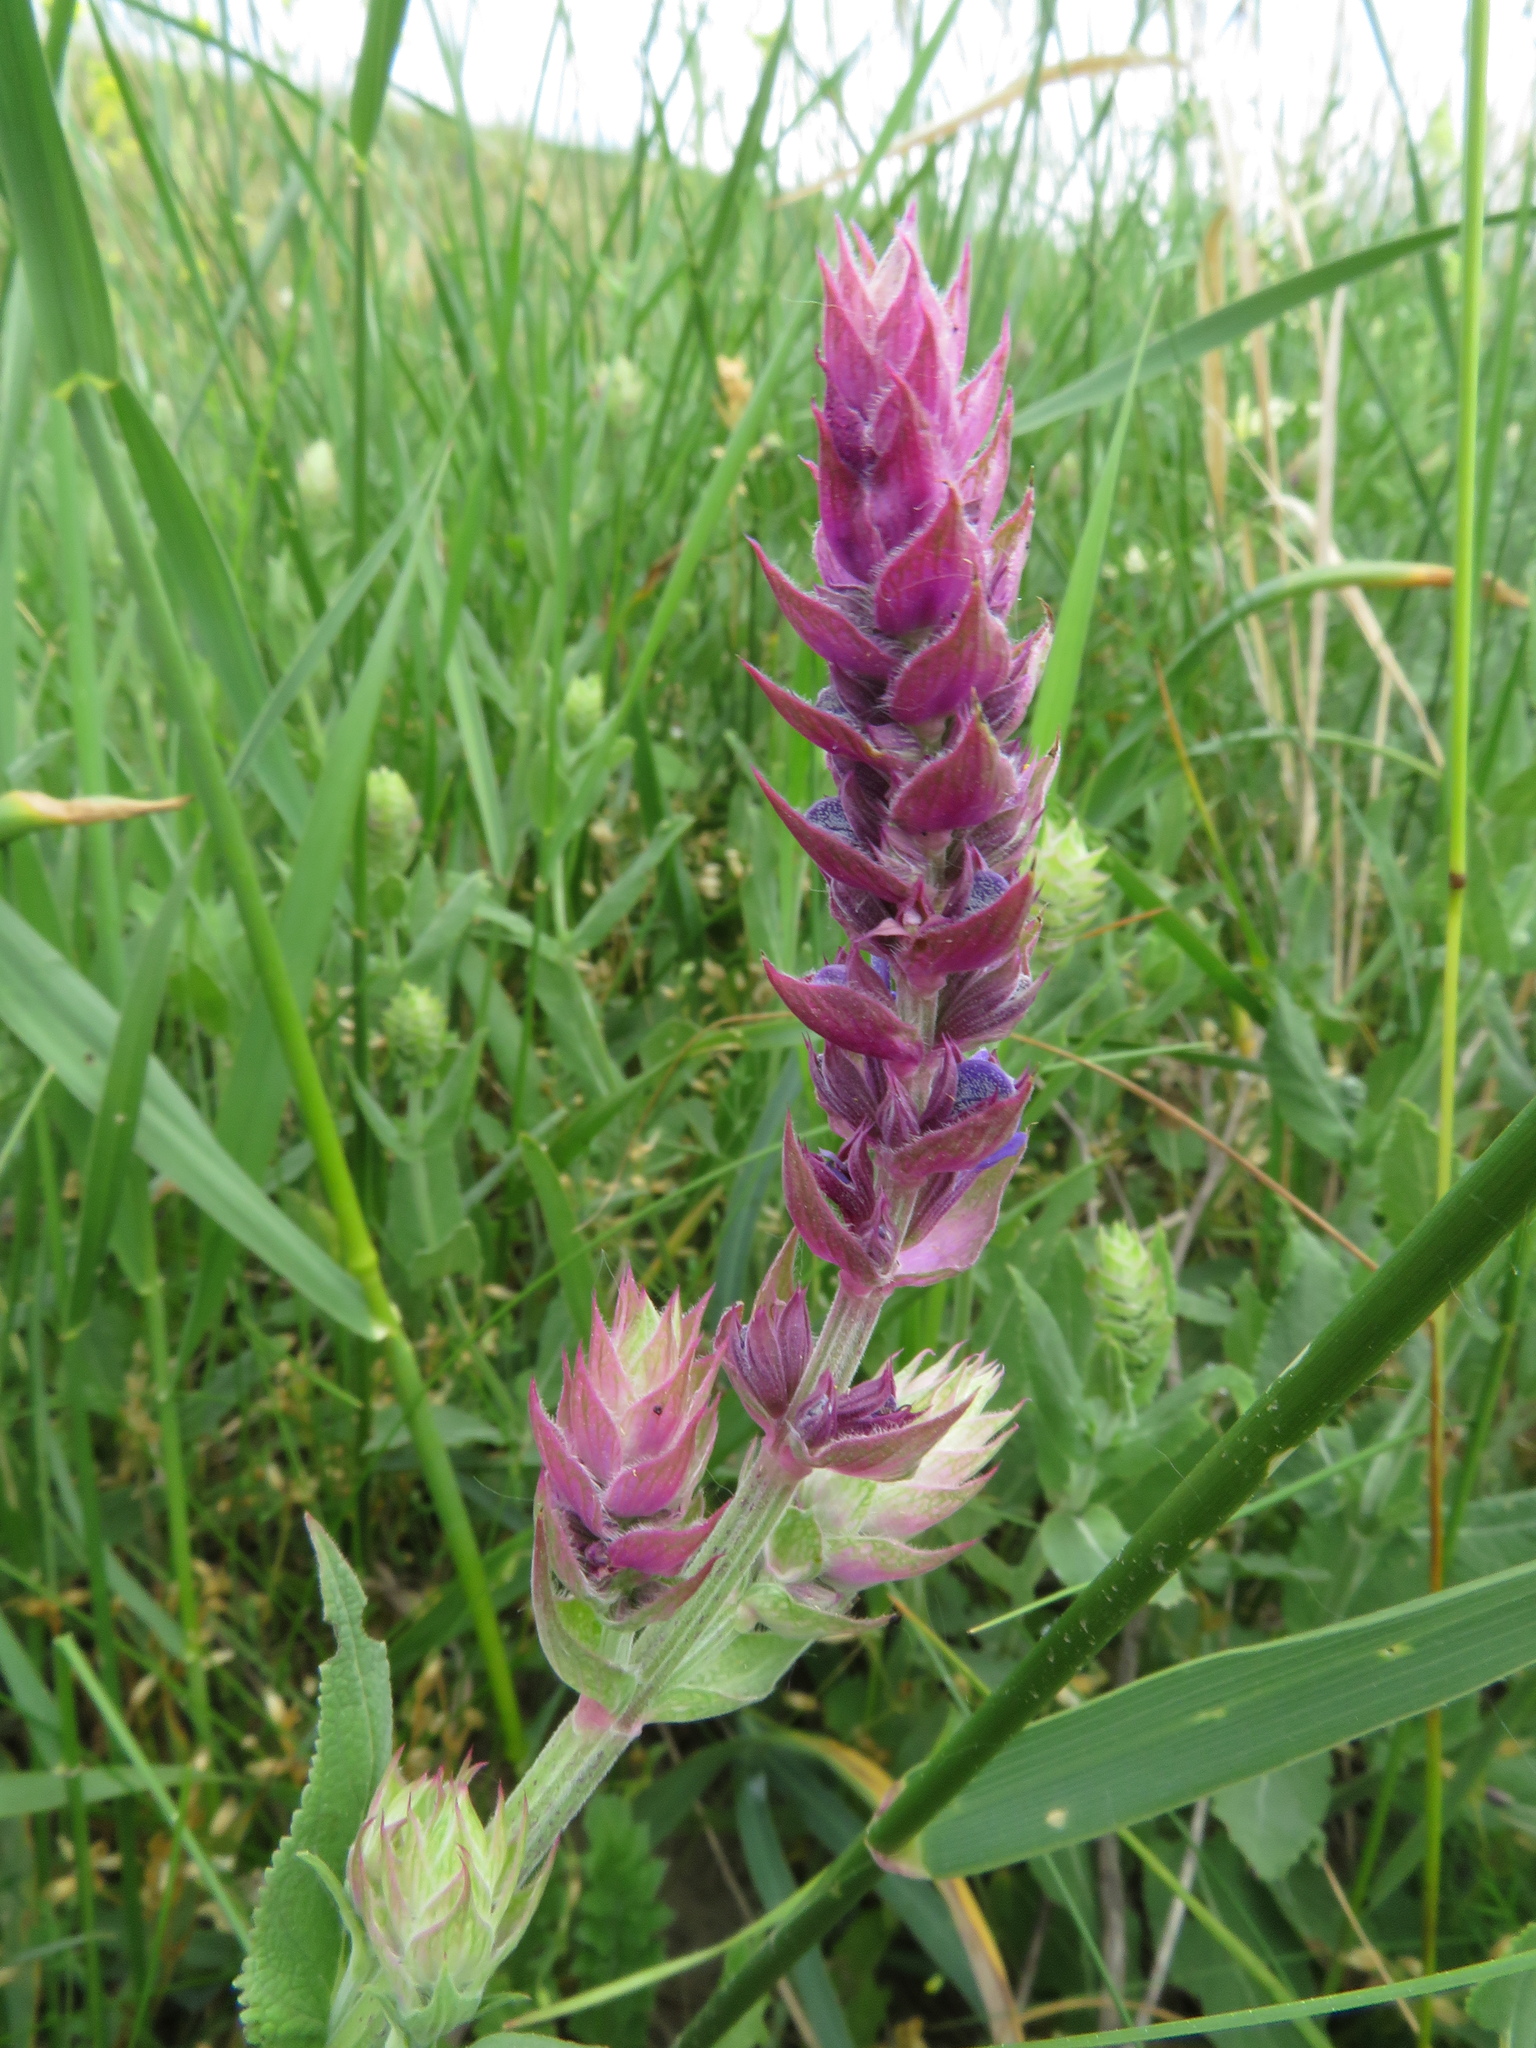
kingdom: Plantae
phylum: Tracheophyta
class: Magnoliopsida
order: Lamiales
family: Lamiaceae
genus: Salvia
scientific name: Salvia nemorosa
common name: Balkan clary
